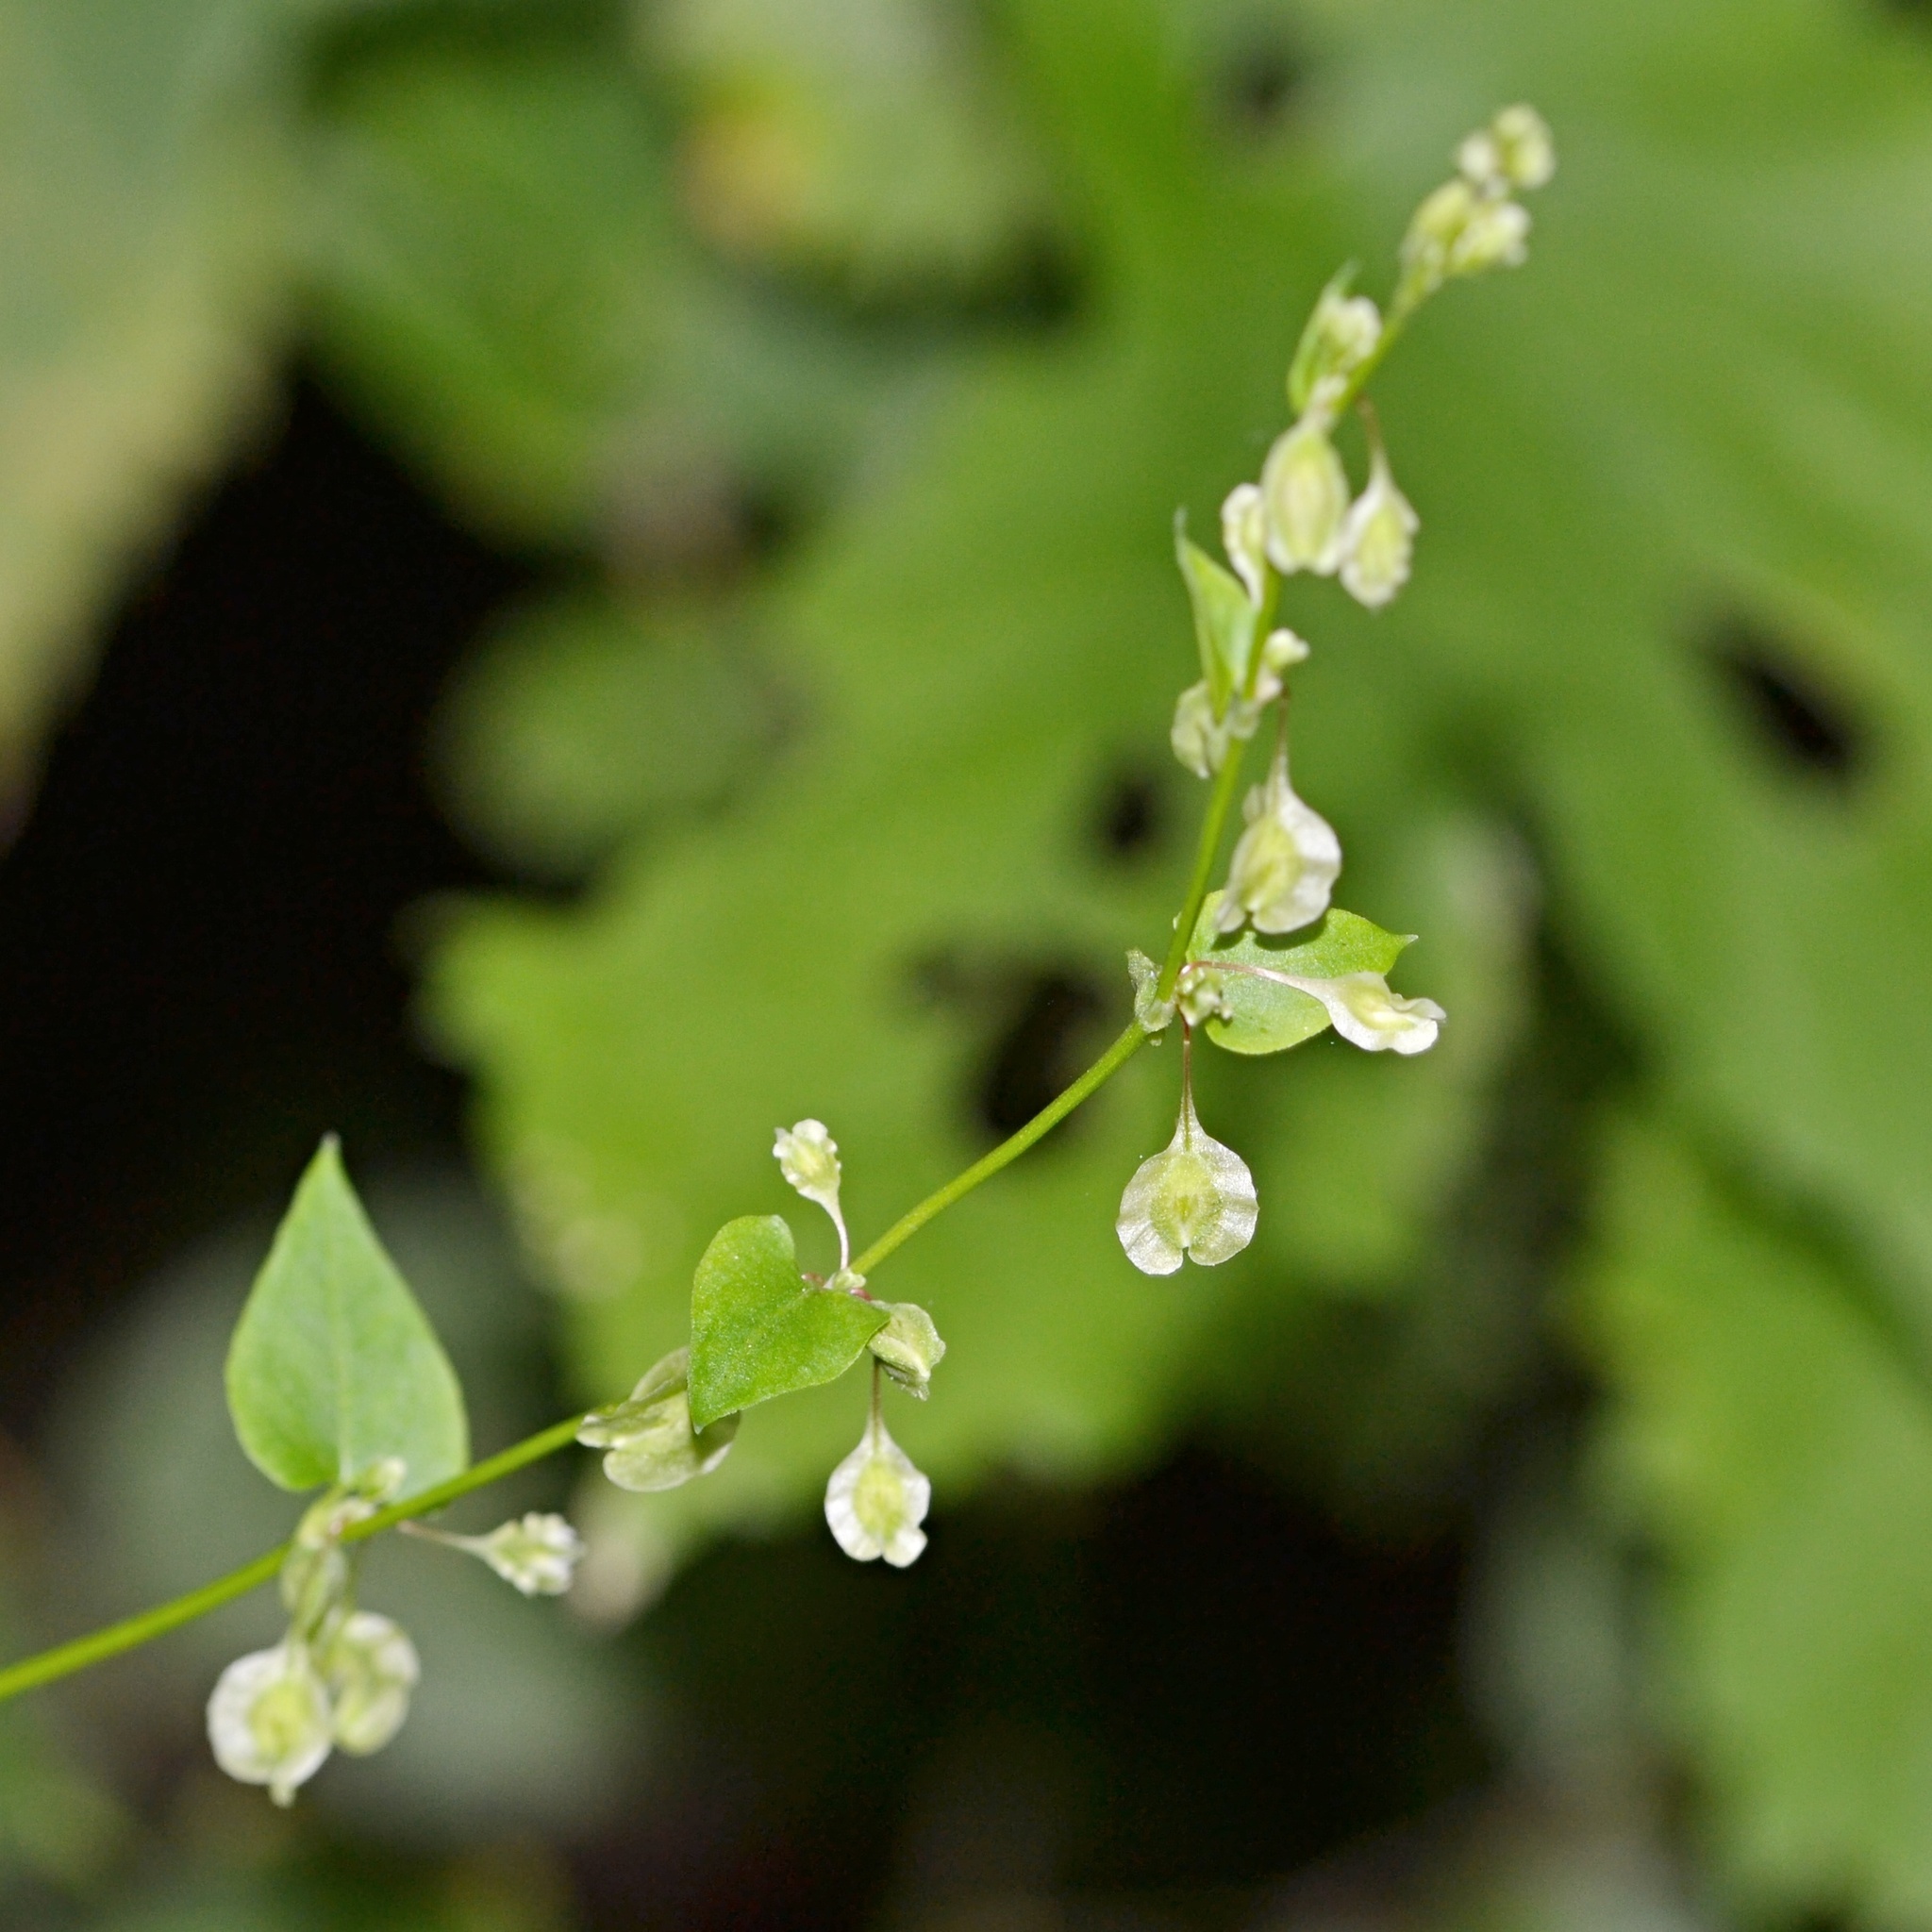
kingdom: Plantae
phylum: Tracheophyta
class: Magnoliopsida
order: Caryophyllales
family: Polygonaceae
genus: Fallopia
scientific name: Fallopia dumetorum
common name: Copse-bindweed
